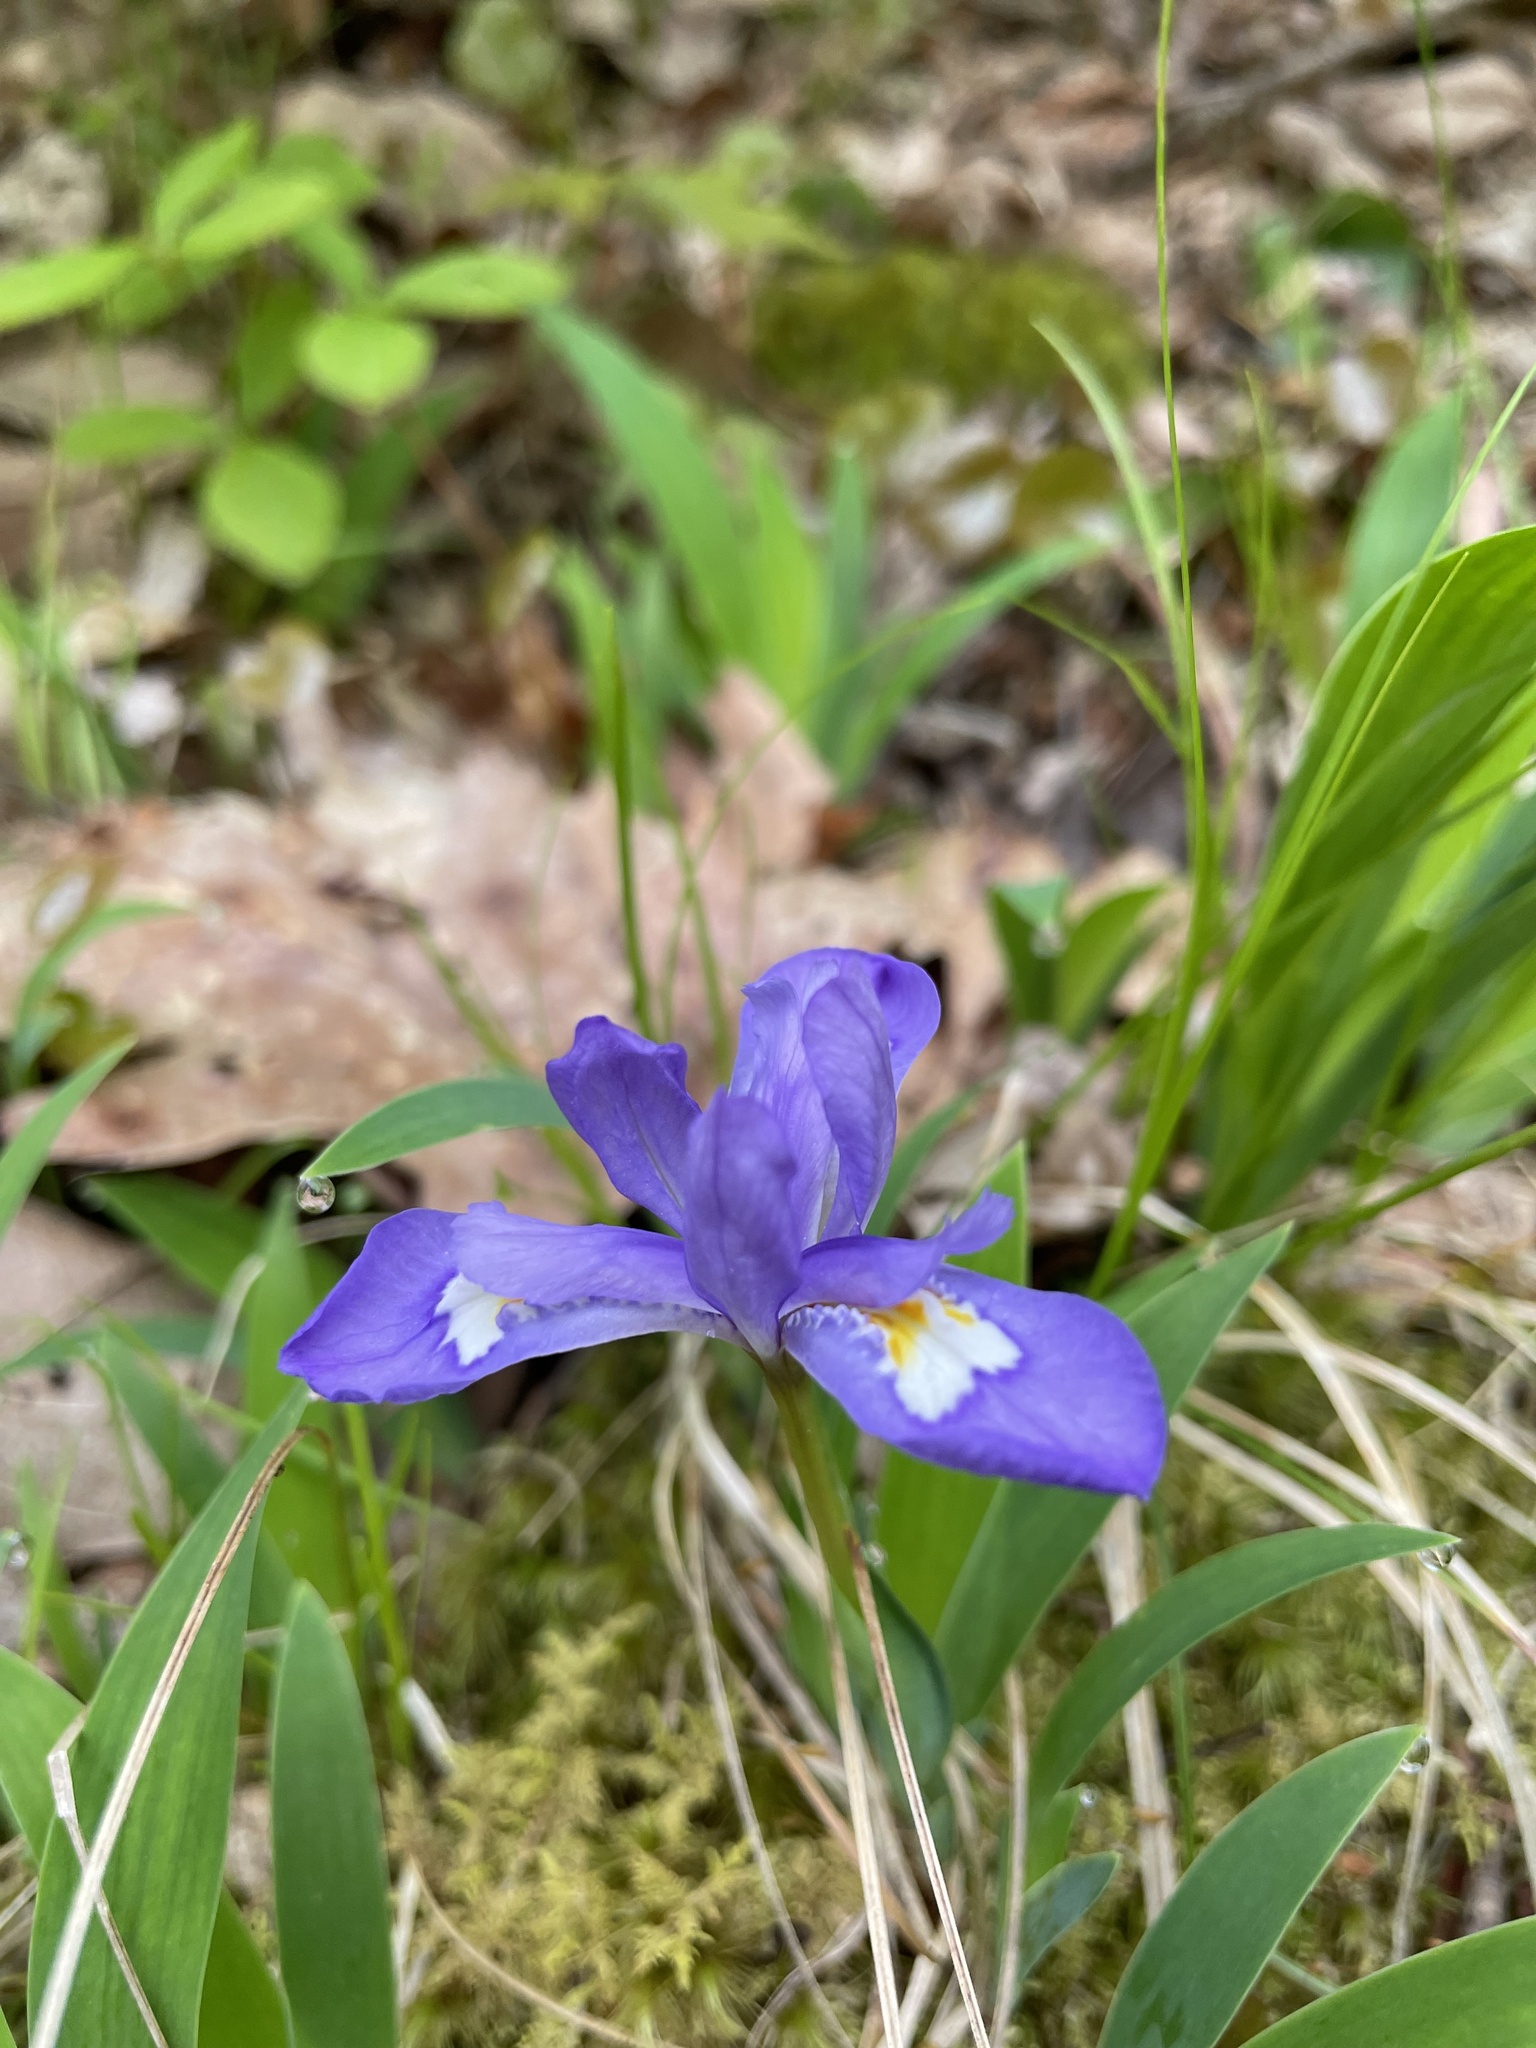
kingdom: Plantae
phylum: Tracheophyta
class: Liliopsida
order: Asparagales
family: Iridaceae
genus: Iris
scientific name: Iris cristata
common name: Crested iris
